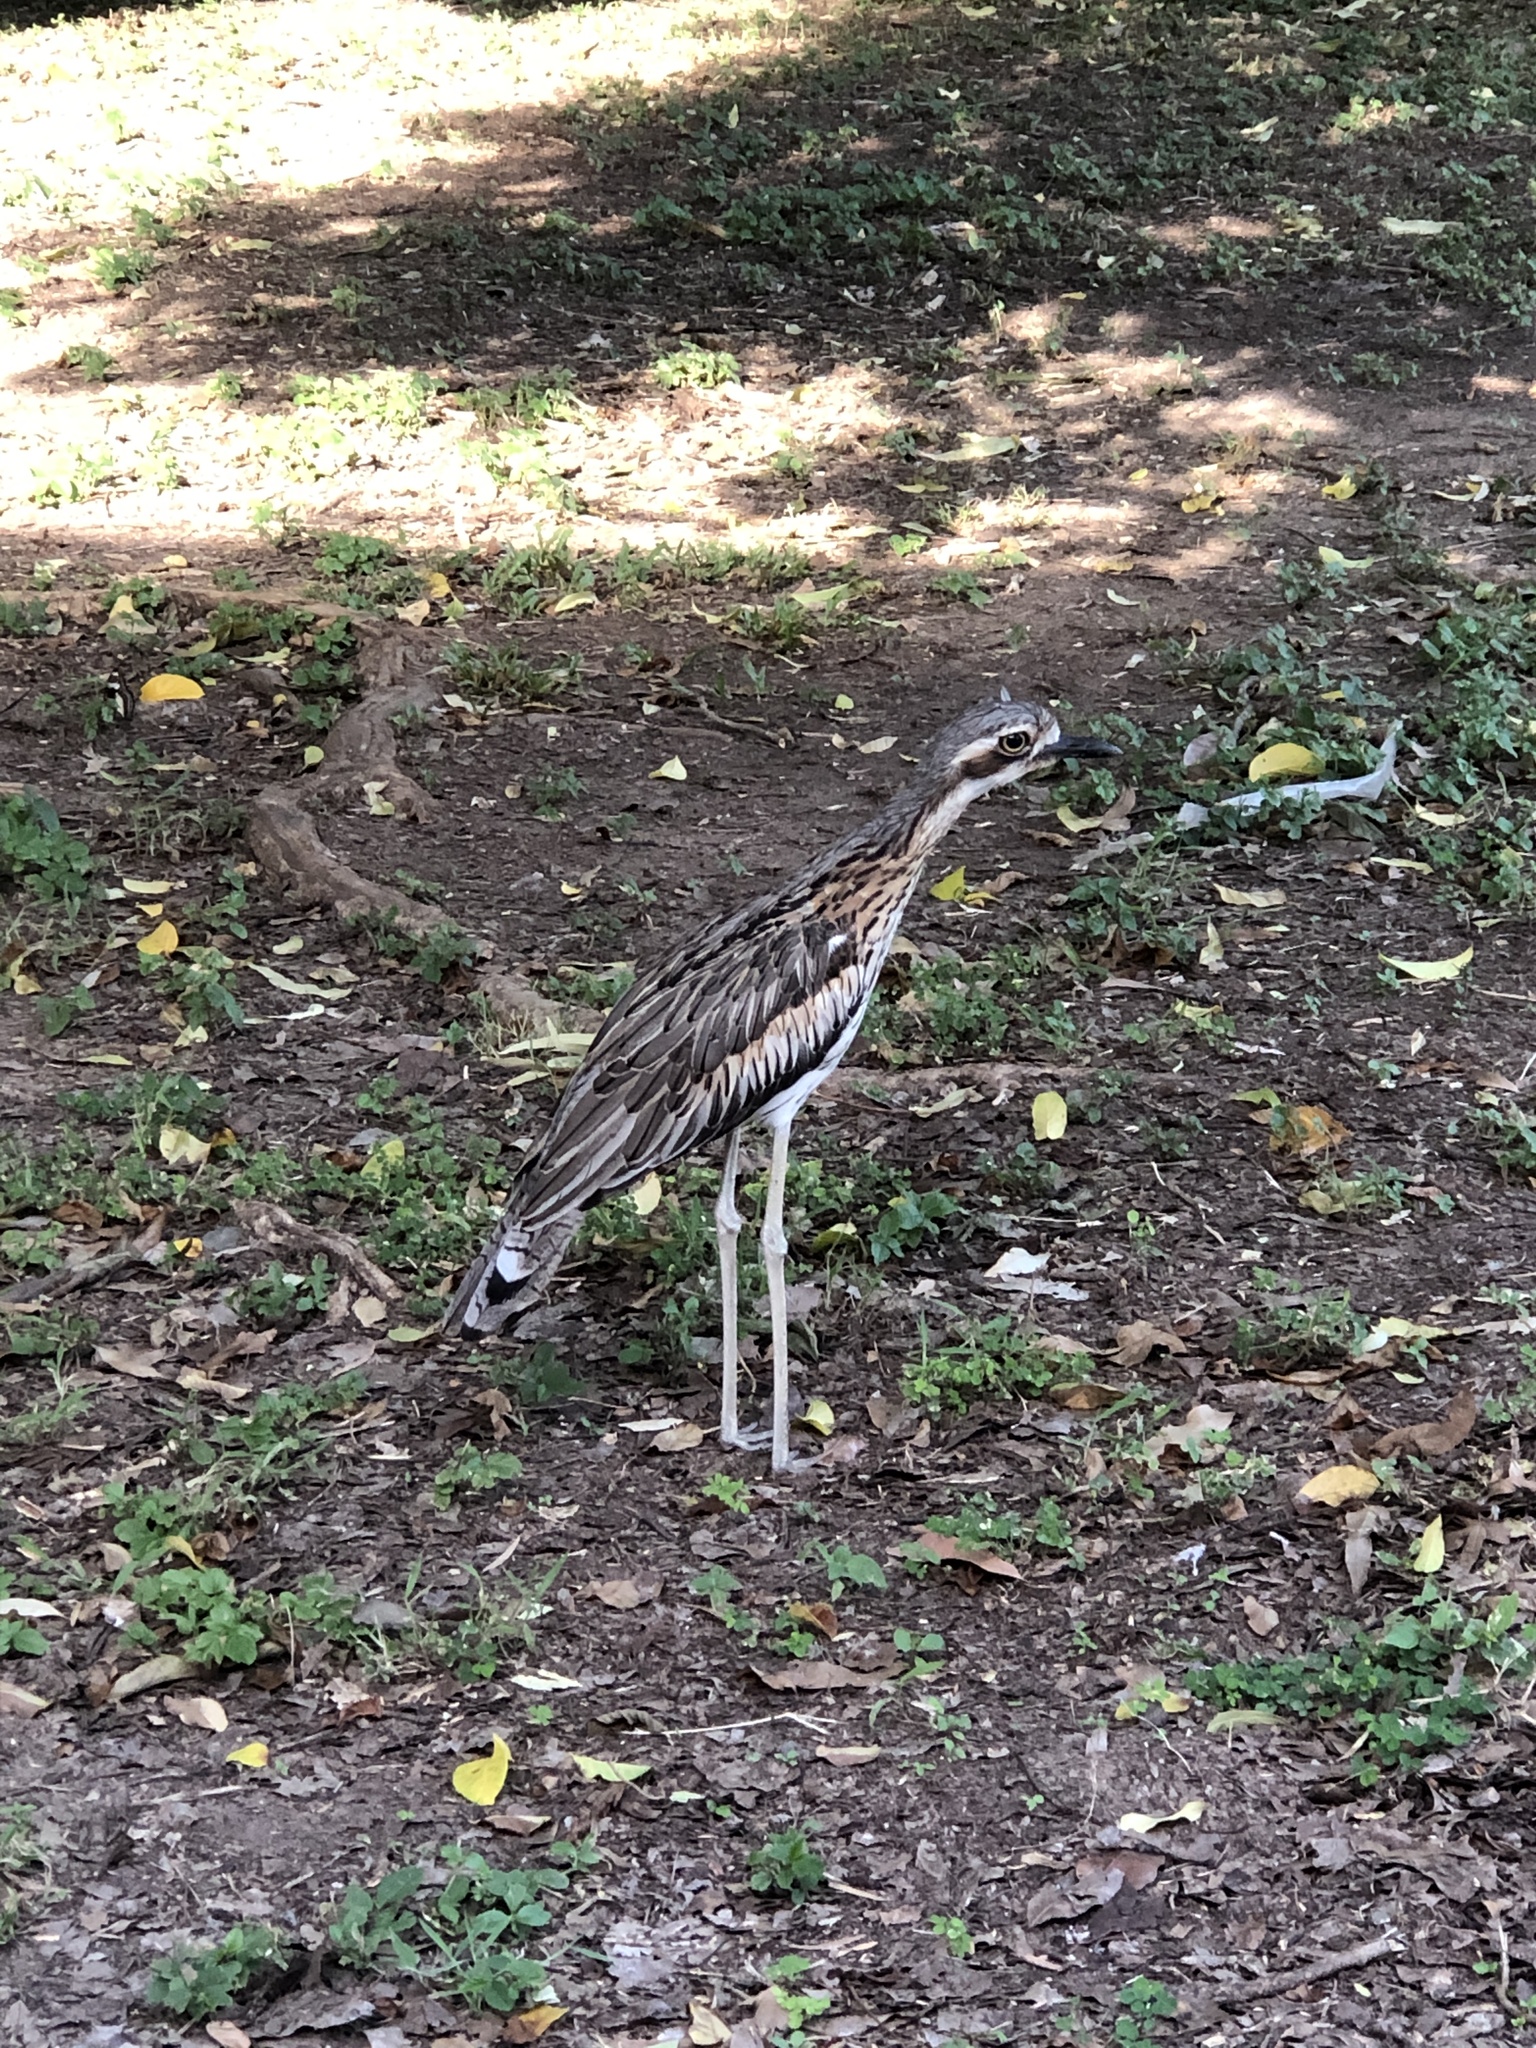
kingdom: Animalia
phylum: Chordata
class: Aves
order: Charadriiformes
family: Burhinidae
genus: Burhinus
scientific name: Burhinus grallarius
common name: Bush stone-curlew
